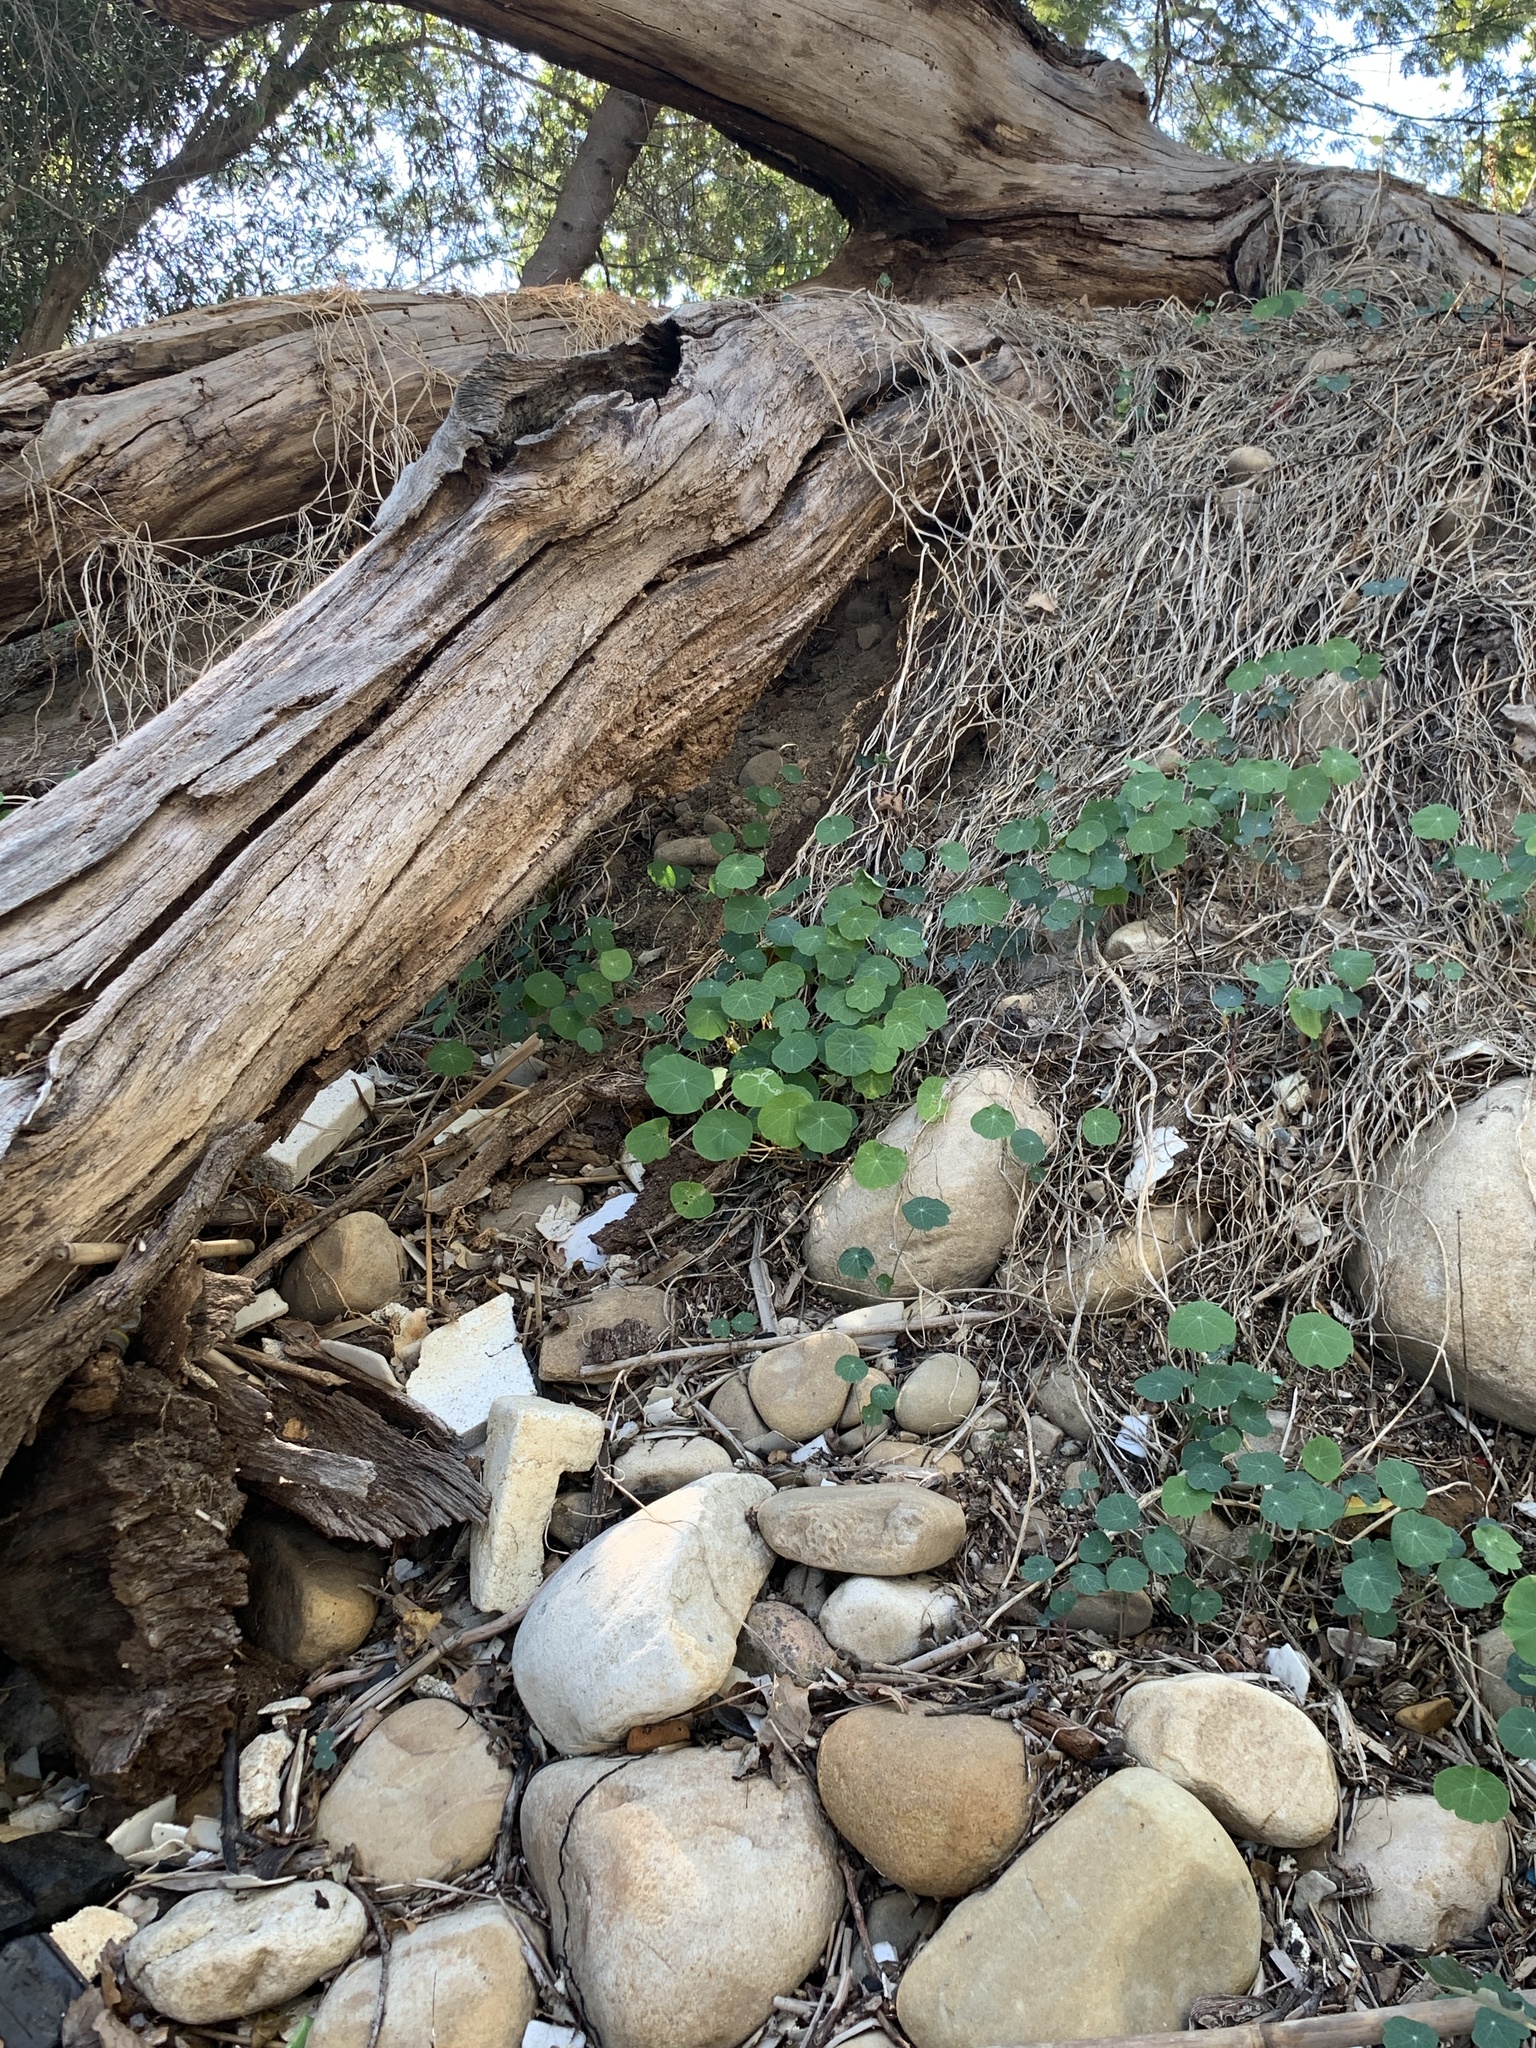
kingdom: Plantae
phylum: Tracheophyta
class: Magnoliopsida
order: Brassicales
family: Tropaeolaceae
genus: Tropaeolum
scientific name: Tropaeolum majus
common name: Nasturtium
